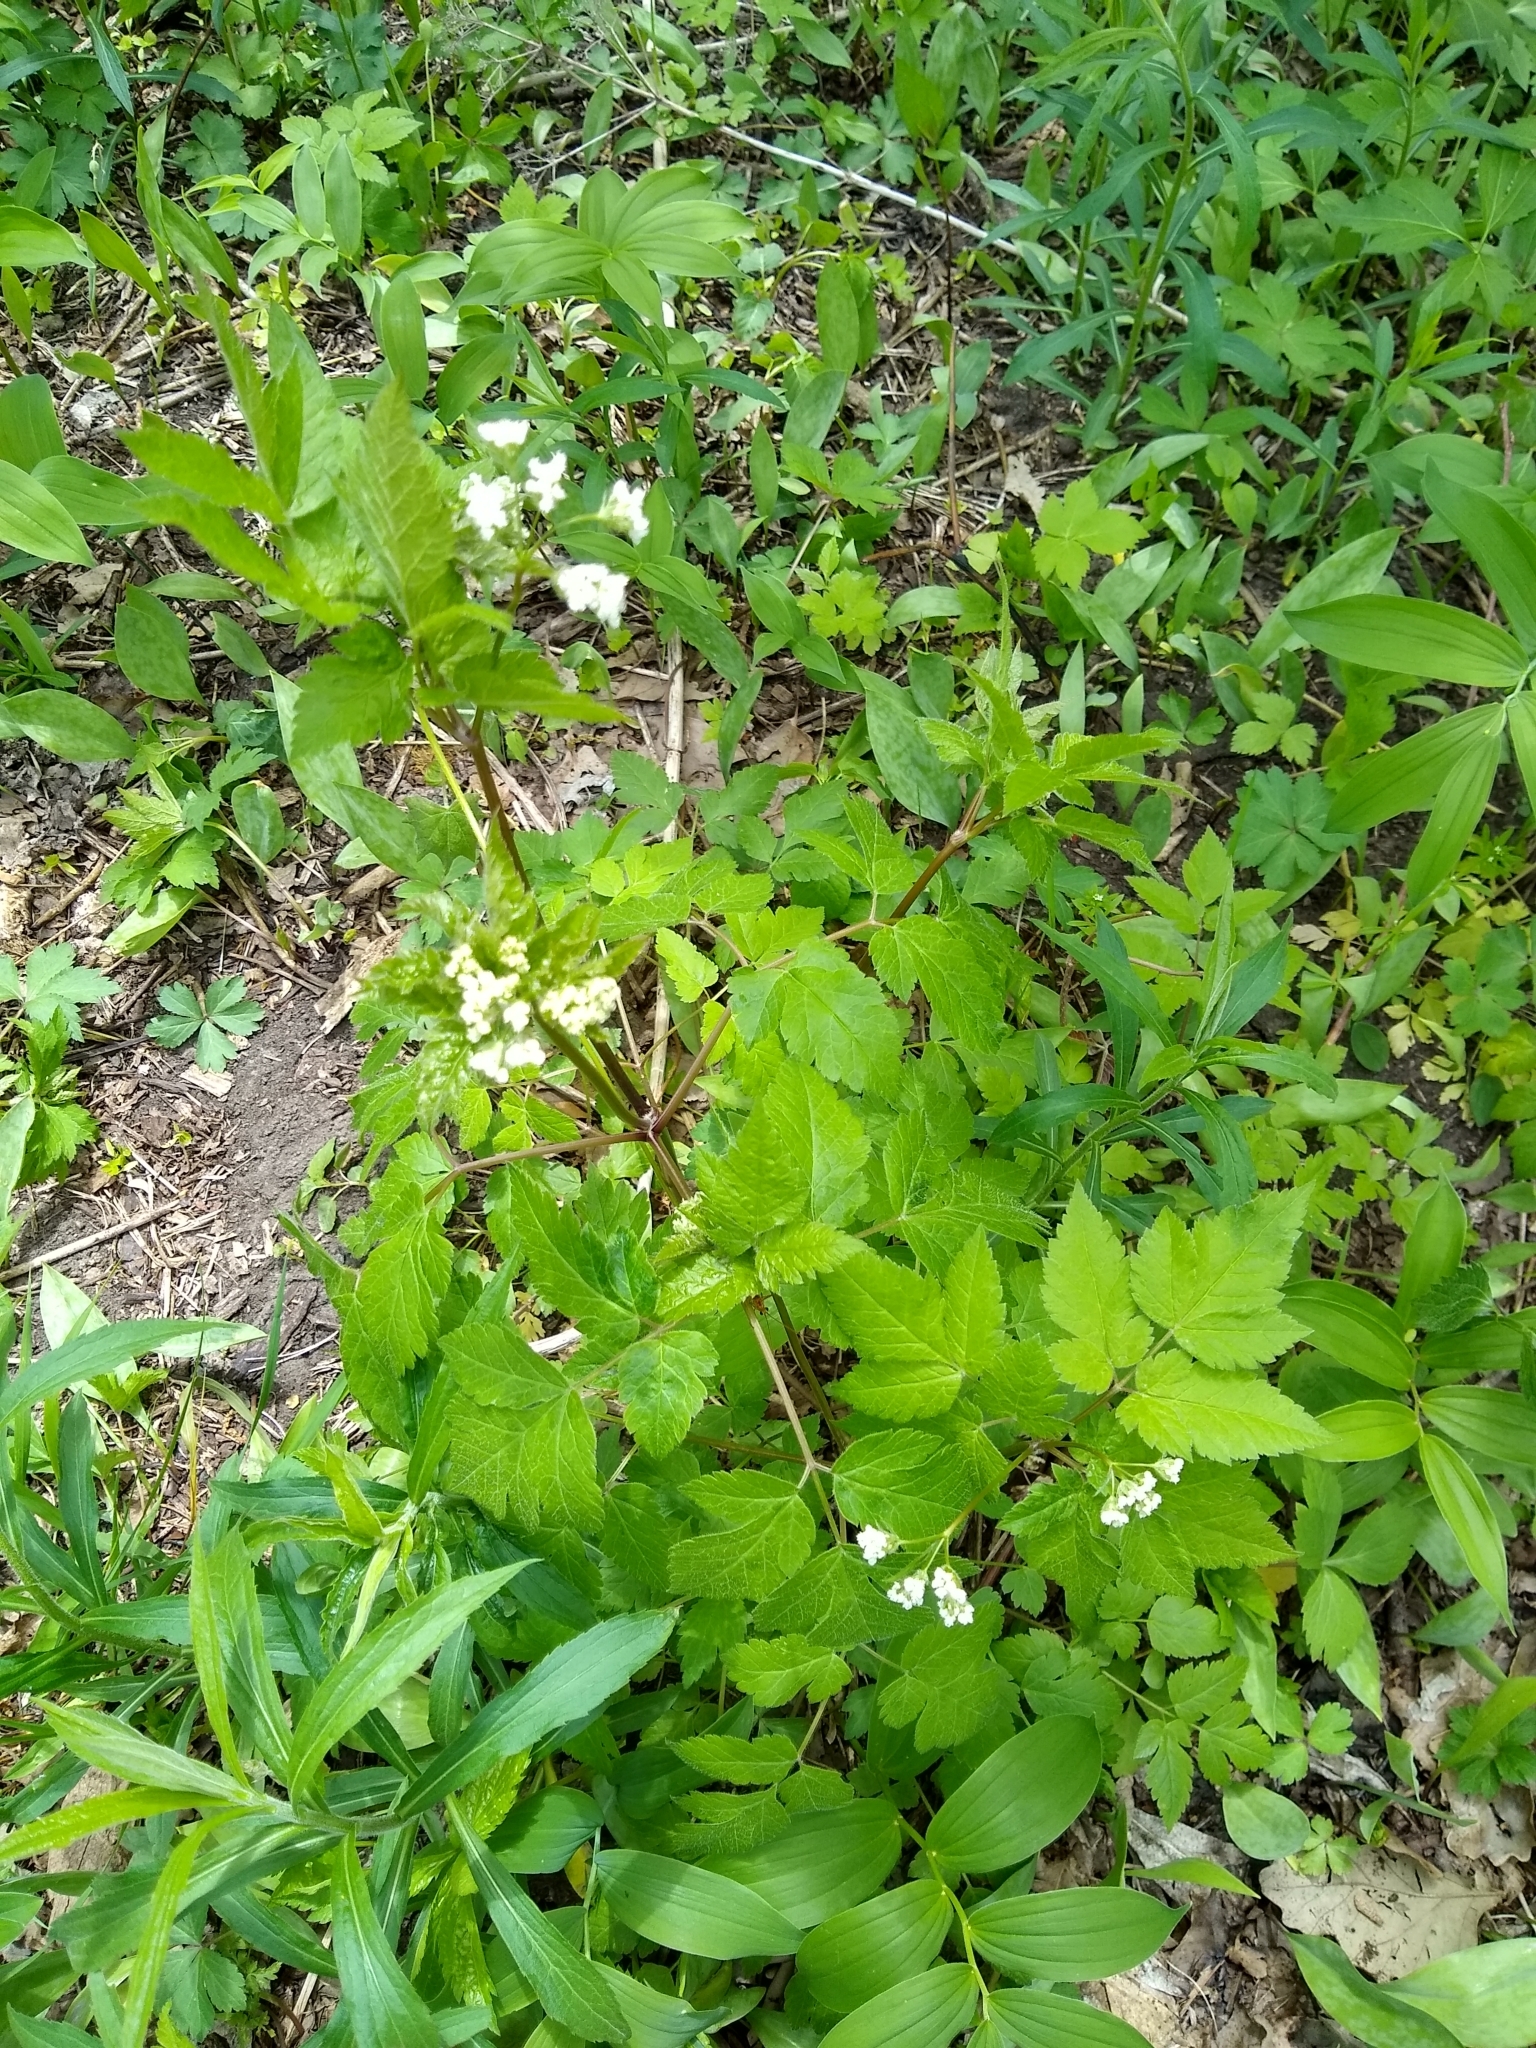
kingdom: Plantae
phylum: Tracheophyta
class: Magnoliopsida
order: Apiales
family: Apiaceae
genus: Osmorhiza
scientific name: Osmorhiza longistylis
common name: Smooth sweet cicely
